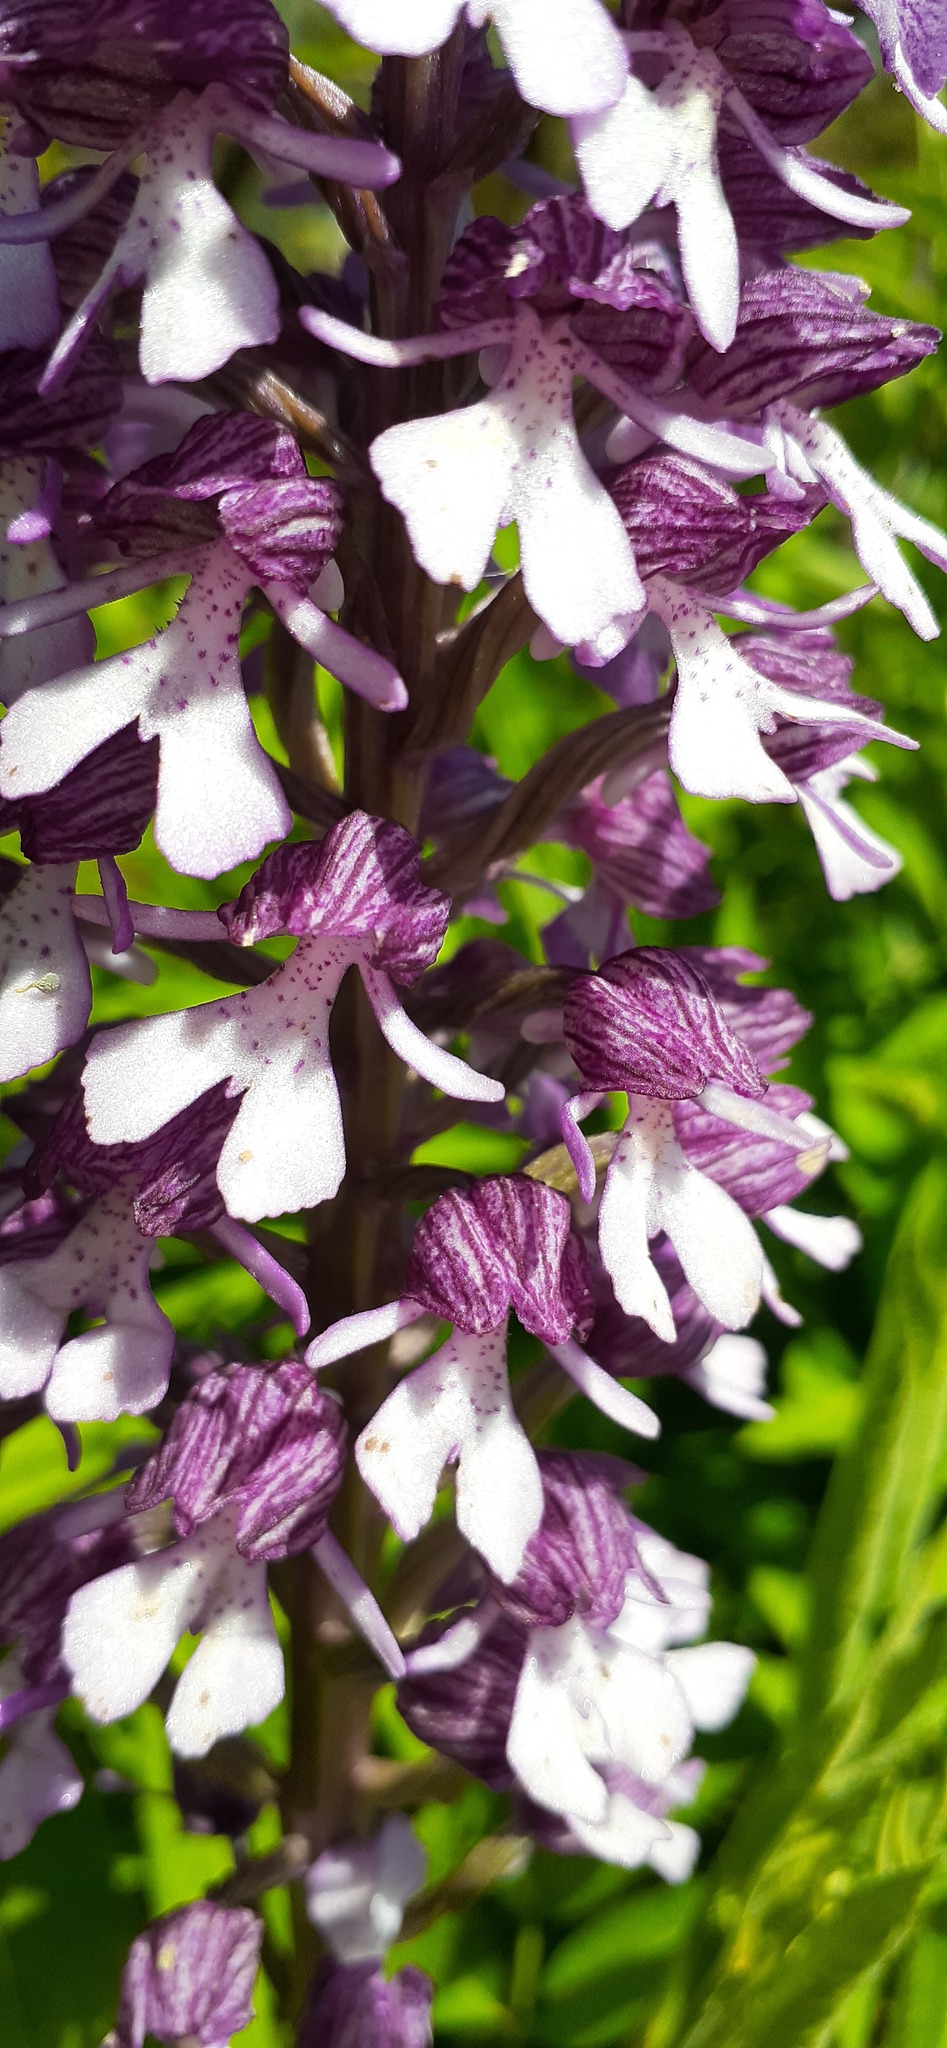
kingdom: Plantae
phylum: Tracheophyta
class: Liliopsida
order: Asparagales
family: Orchidaceae
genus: Orchis
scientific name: Orchis purpurea
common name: Lady orchid
